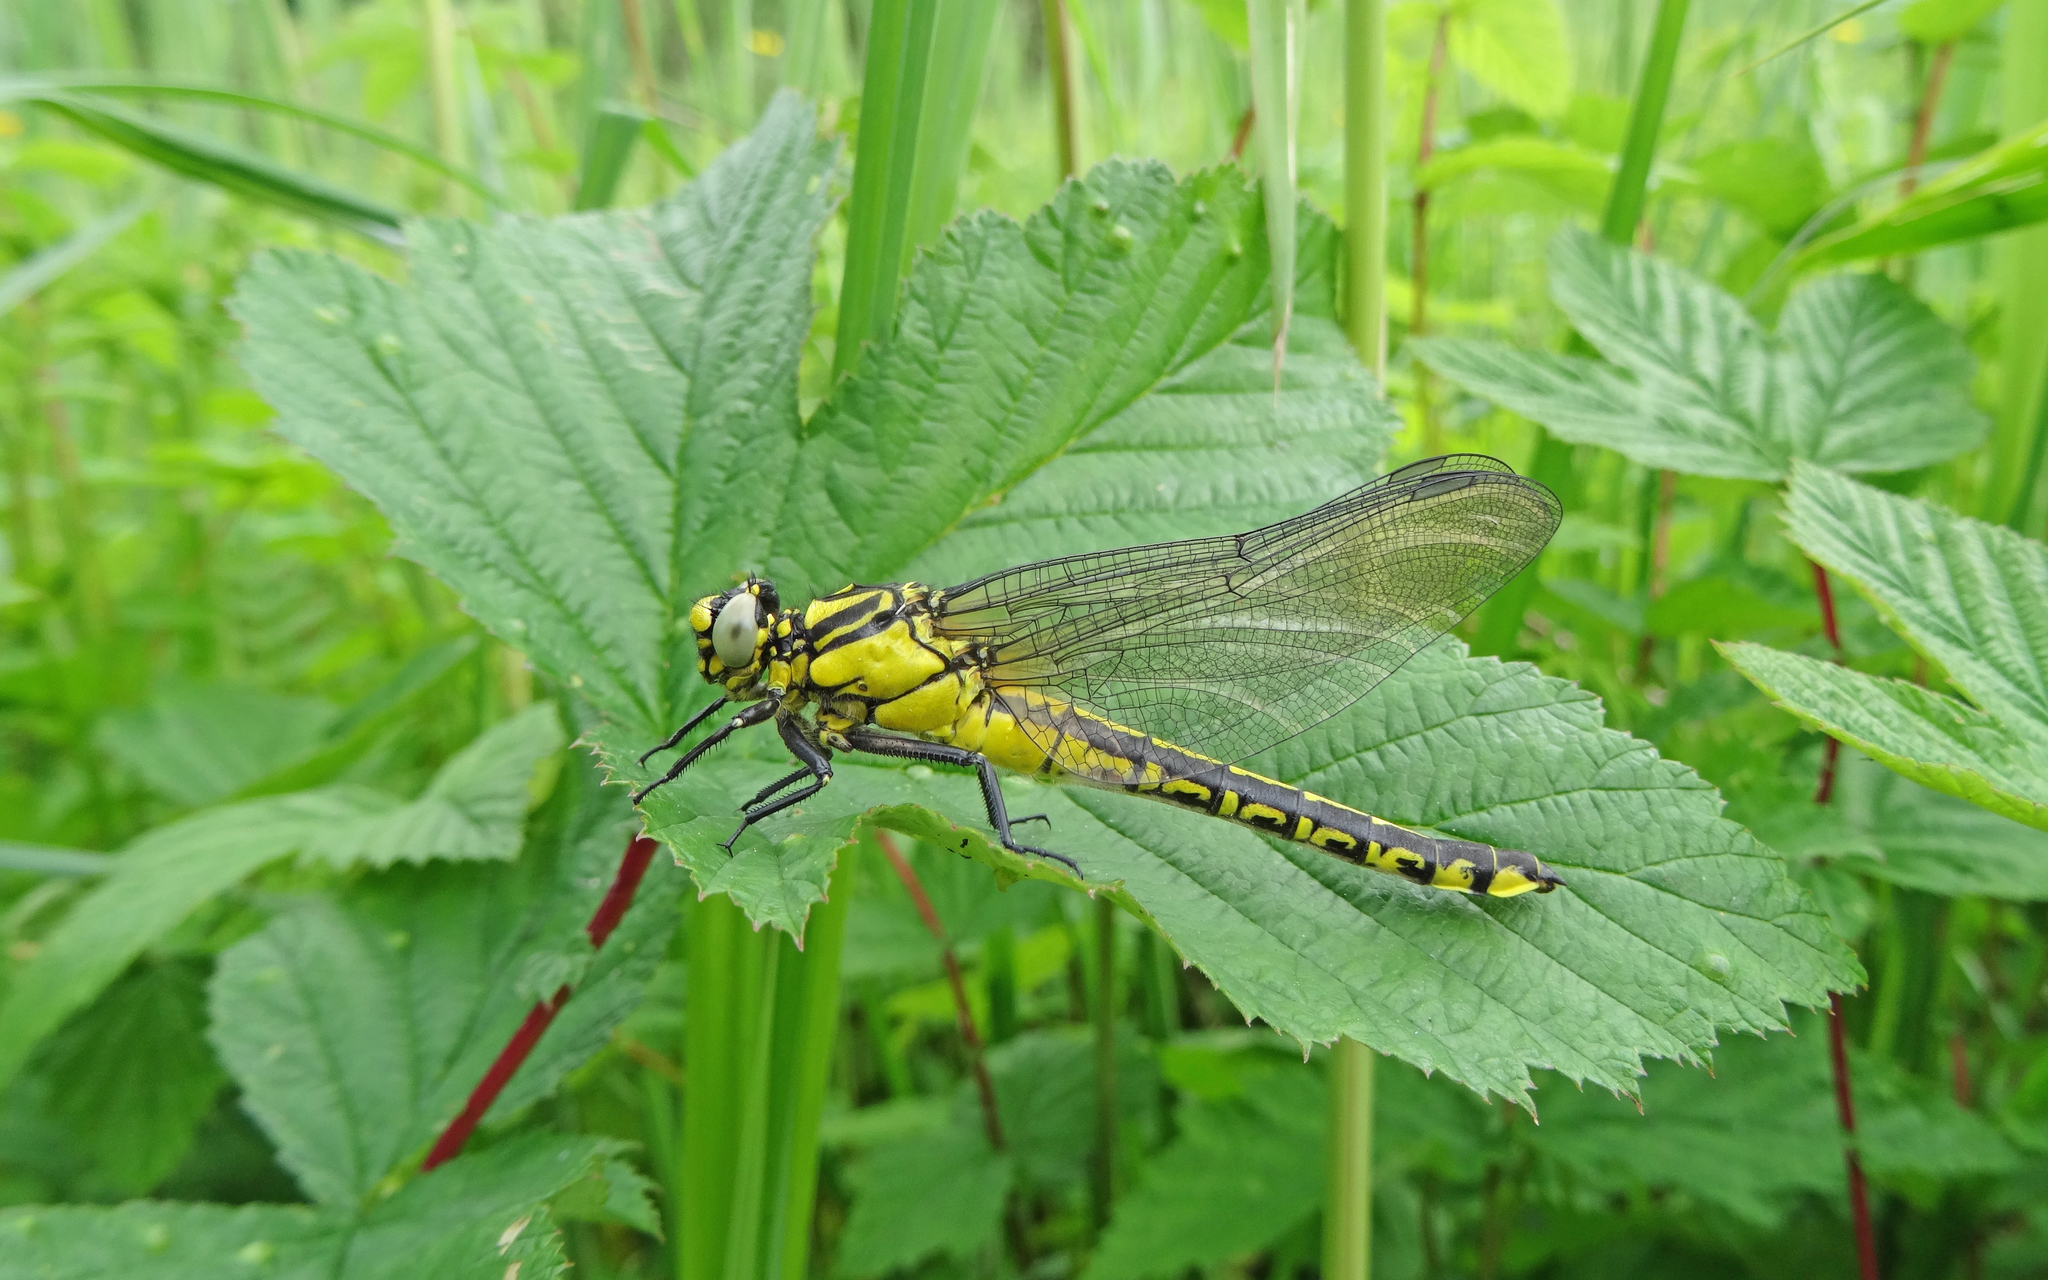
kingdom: Animalia
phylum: Arthropoda
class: Insecta
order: Odonata
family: Gomphidae
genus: Gomphus
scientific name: Gomphus vulgatissimus
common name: Club-tailed dragonfly
